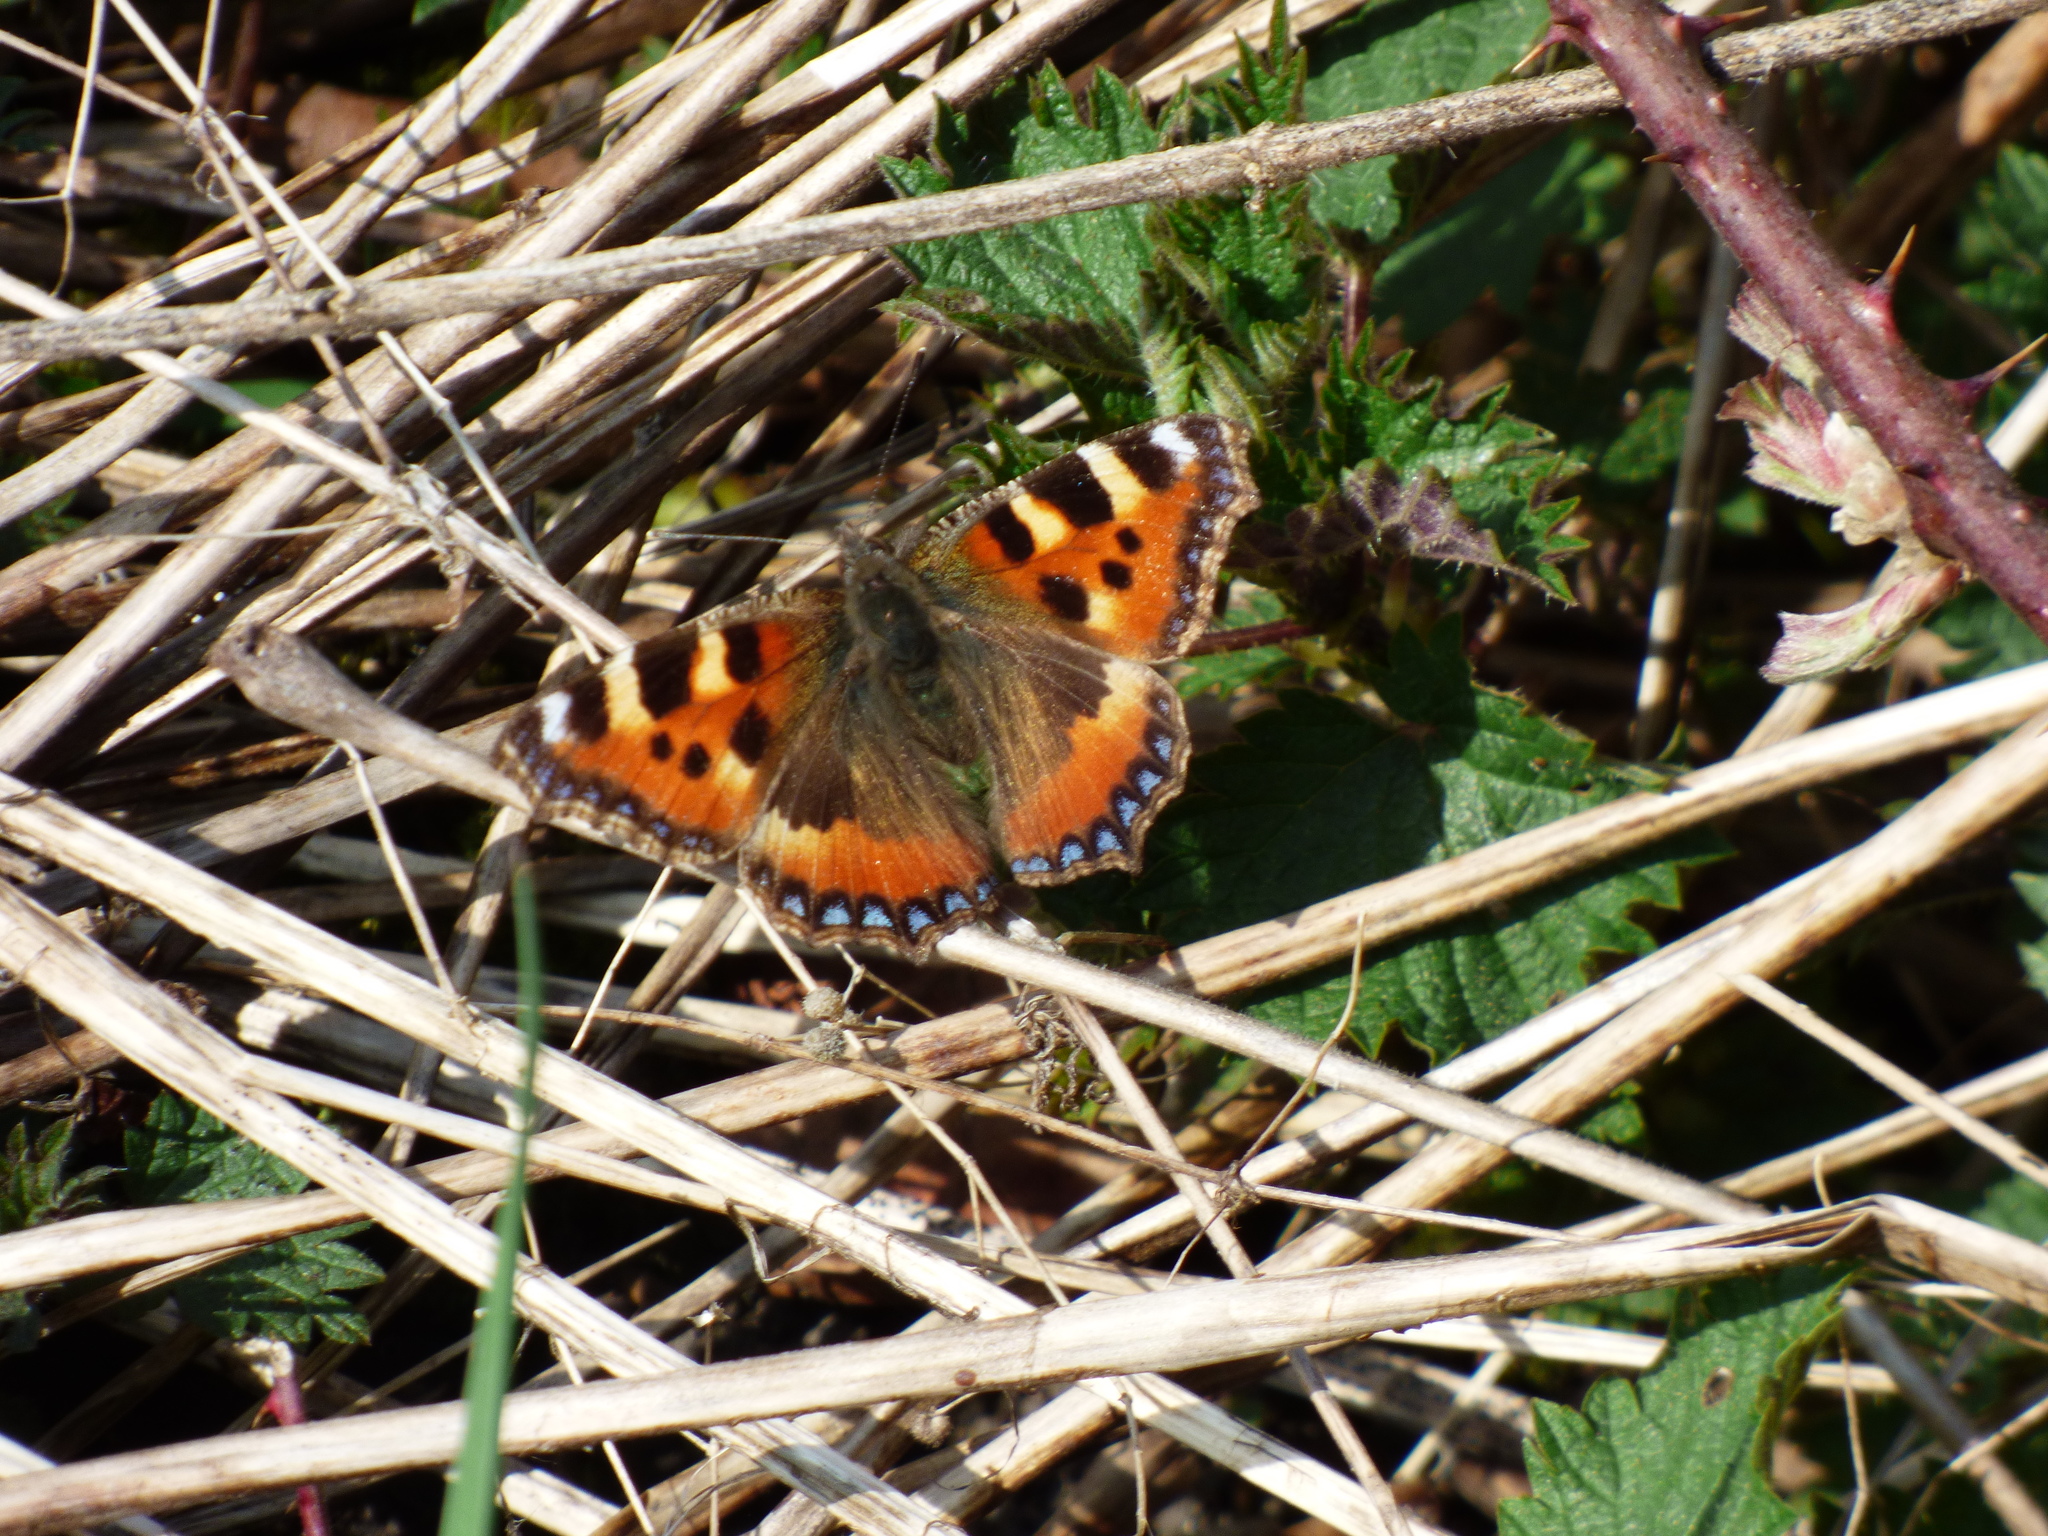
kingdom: Animalia
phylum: Arthropoda
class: Insecta
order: Lepidoptera
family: Nymphalidae
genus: Aglais
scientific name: Aglais urticae
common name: Small tortoiseshell
